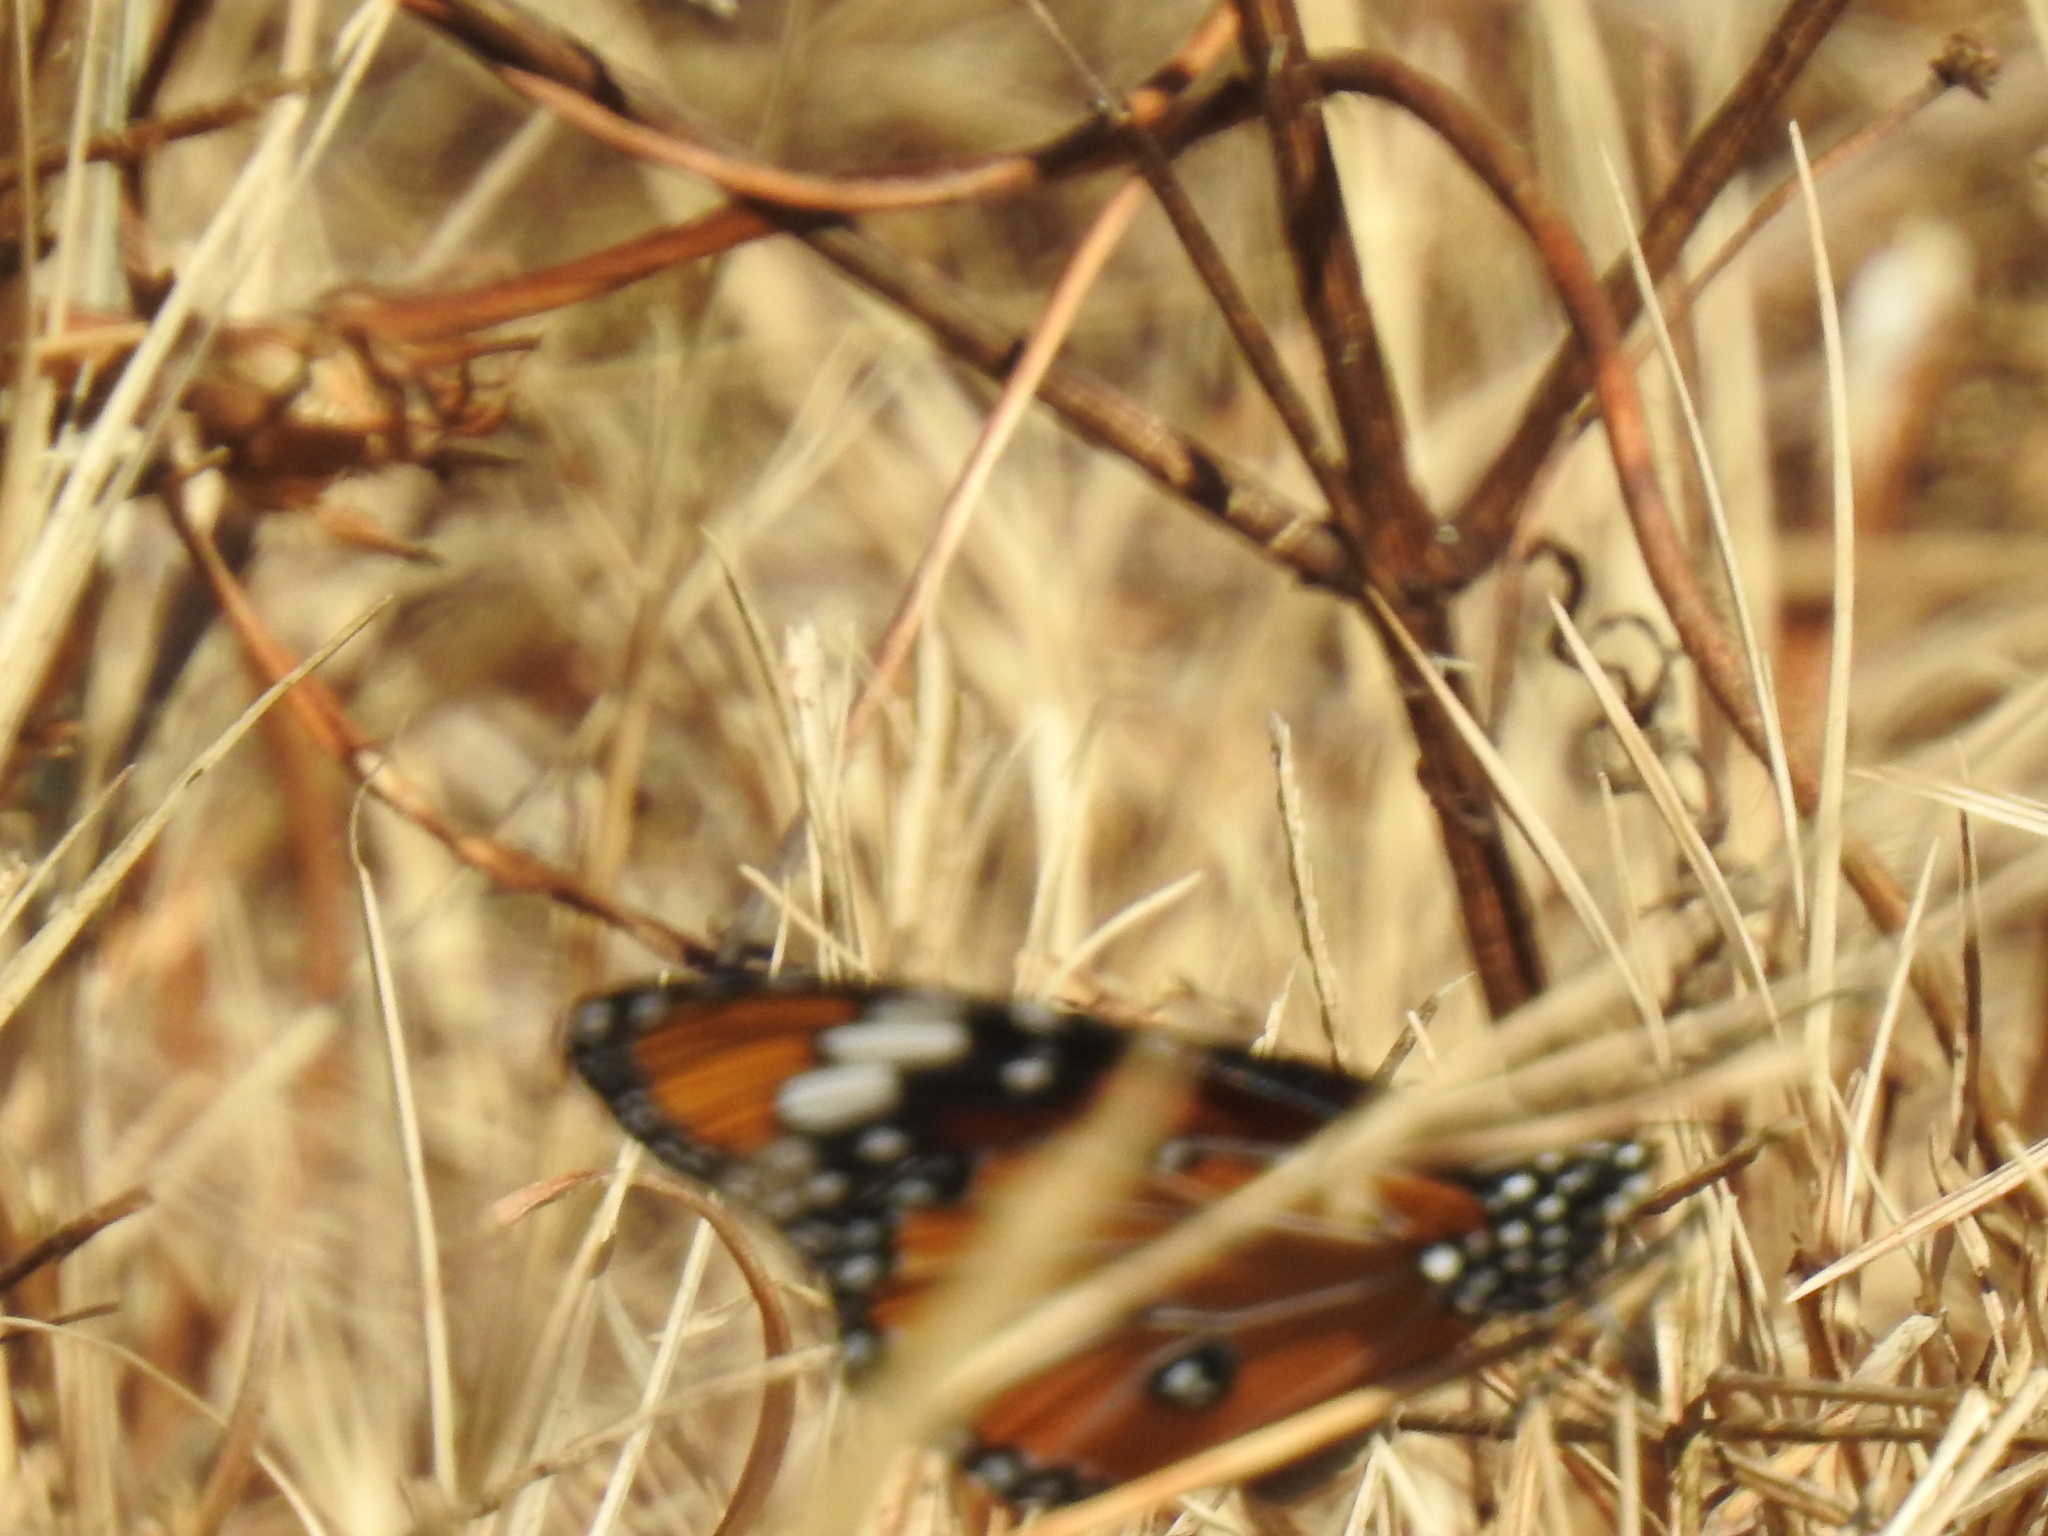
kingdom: Animalia
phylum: Arthropoda
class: Insecta
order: Lepidoptera
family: Nymphalidae
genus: Danaus
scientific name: Danaus chrysippus
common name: Plain tiger
